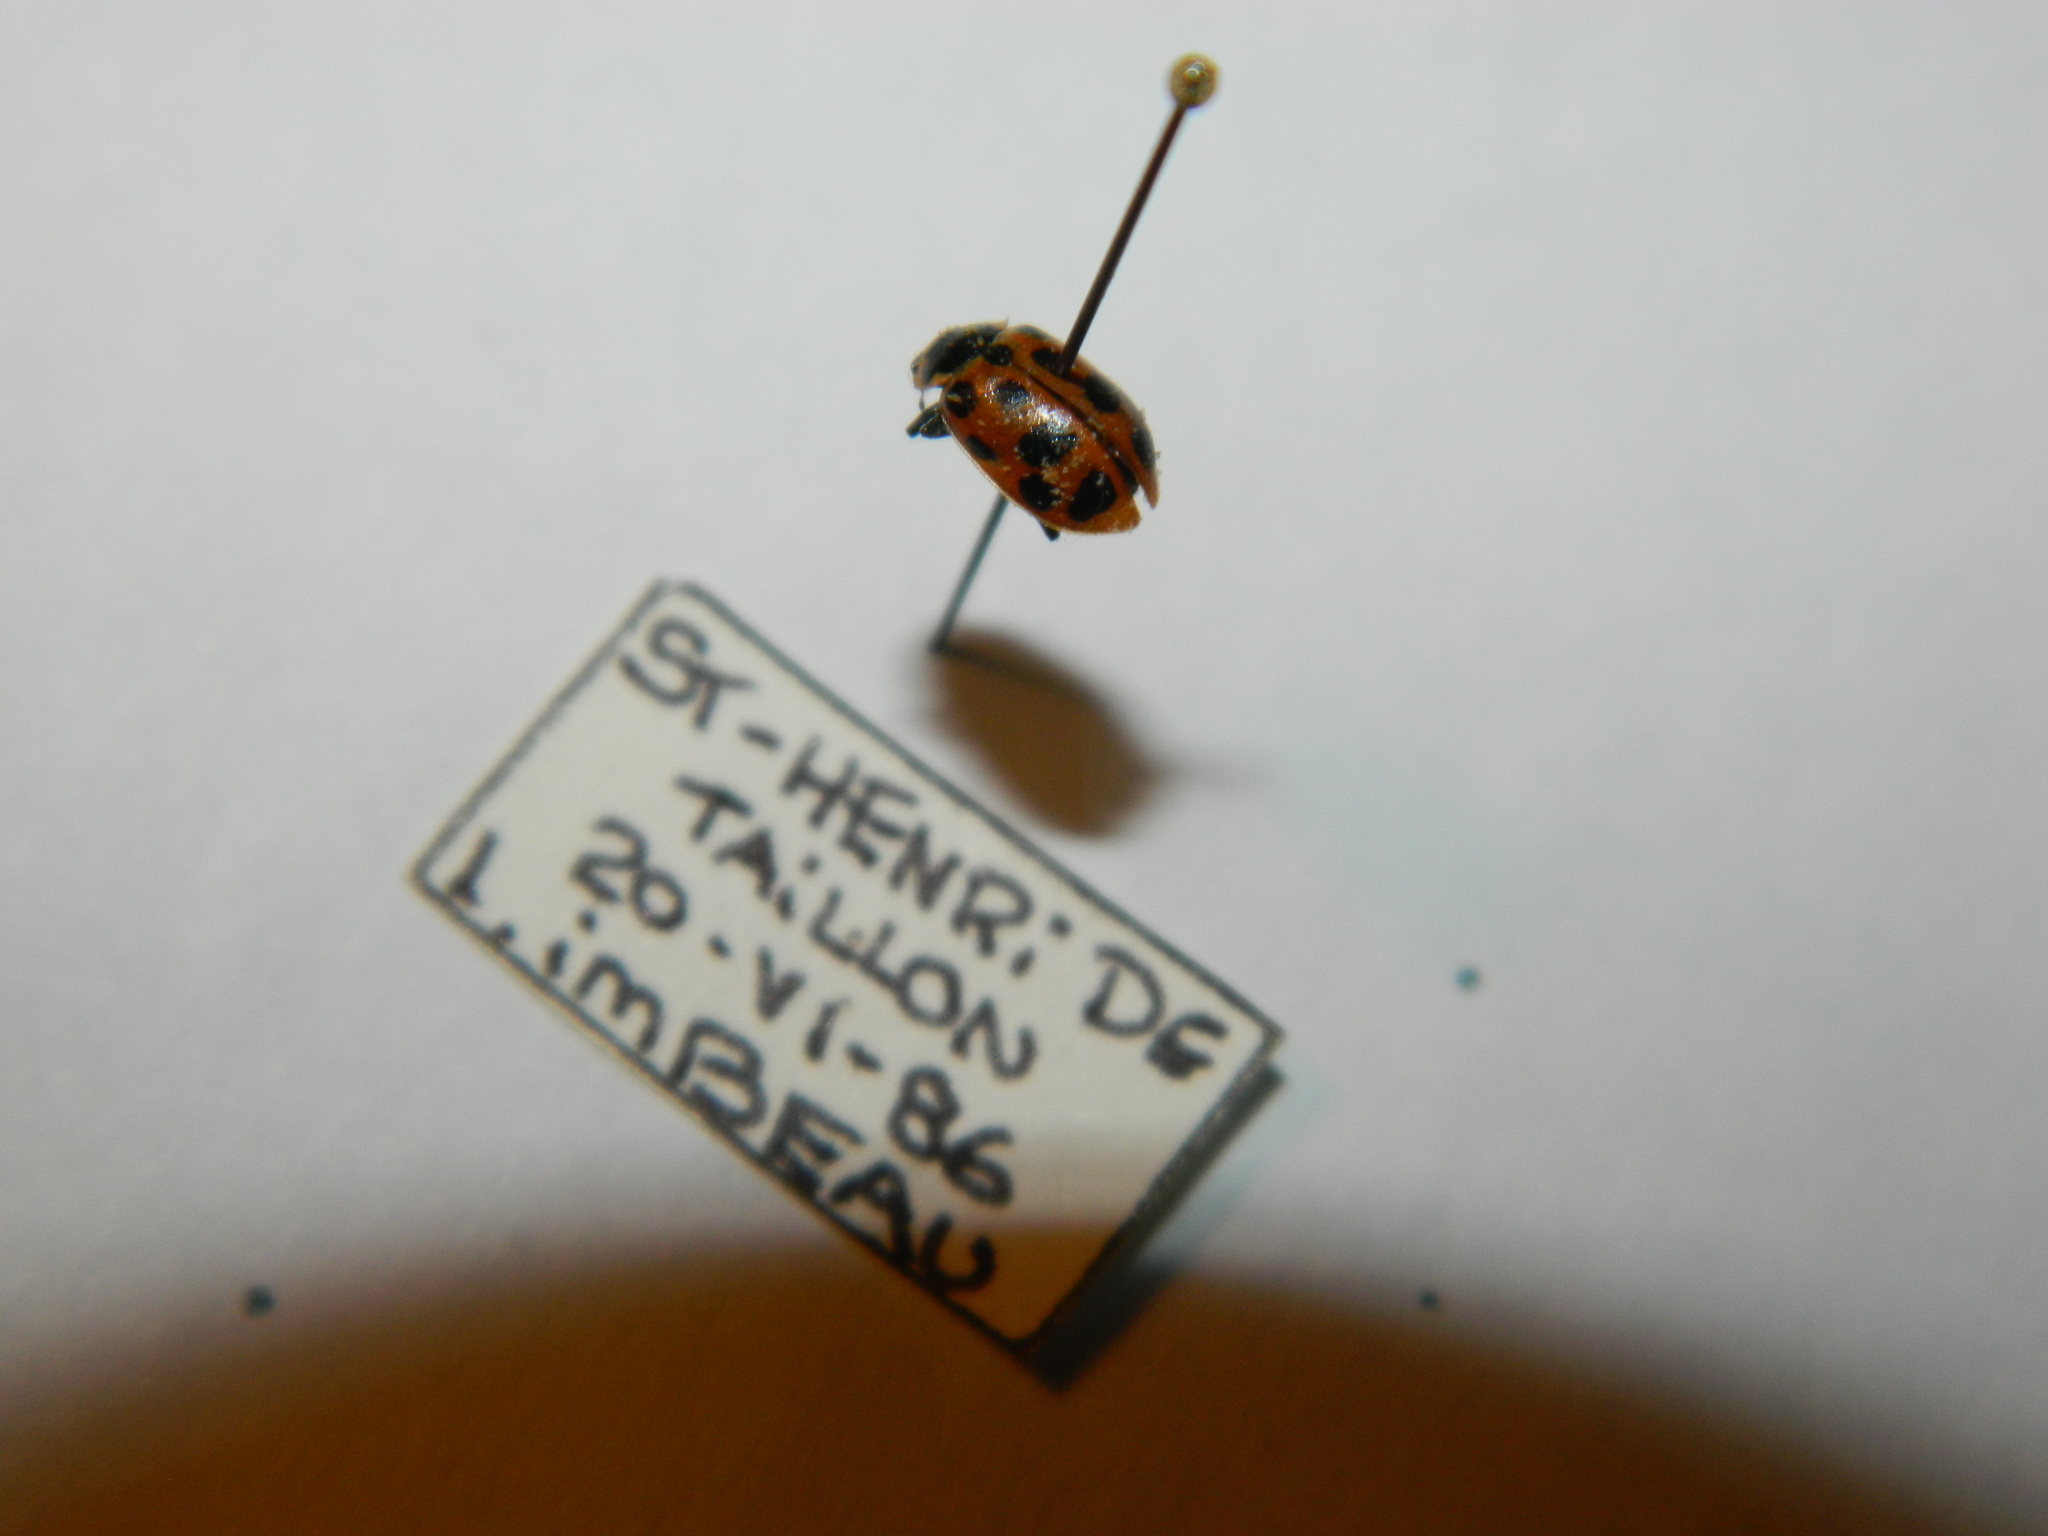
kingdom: Animalia
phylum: Arthropoda
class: Insecta
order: Coleoptera
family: Coccinellidae
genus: Hippodamia
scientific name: Hippodamia tredecimpunctata
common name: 13-spot ladybird
